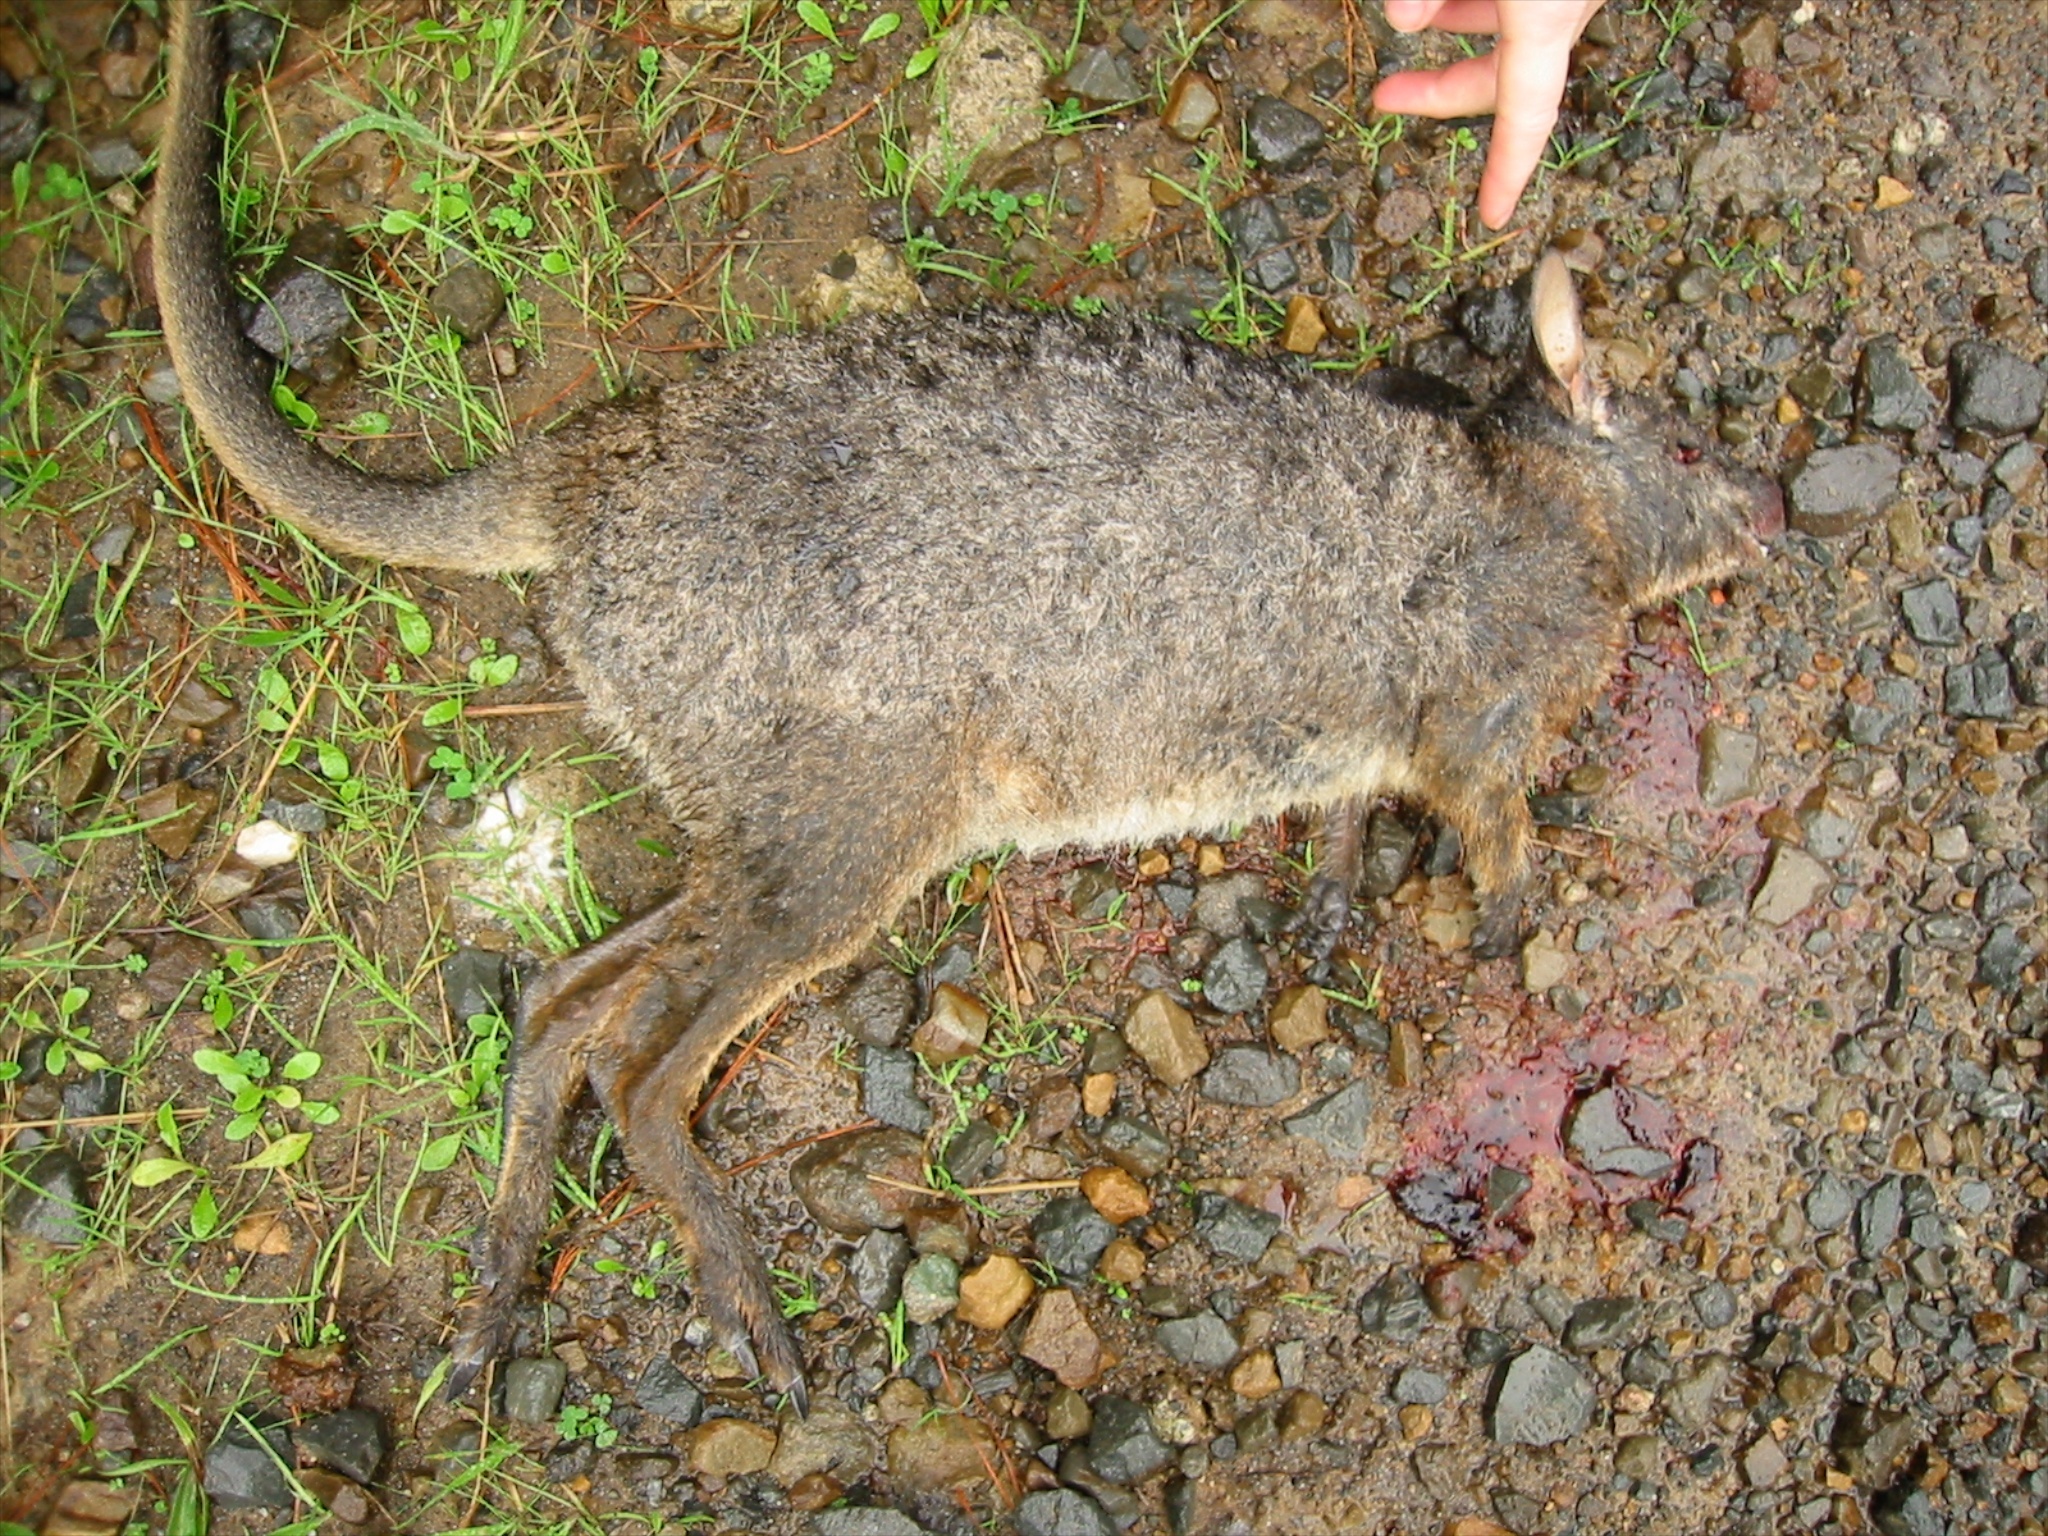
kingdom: Animalia
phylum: Chordata
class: Mammalia
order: Diprotodontia
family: Macropodidae
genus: Macropus
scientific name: Macropus eugenii
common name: Tammar wallaby
